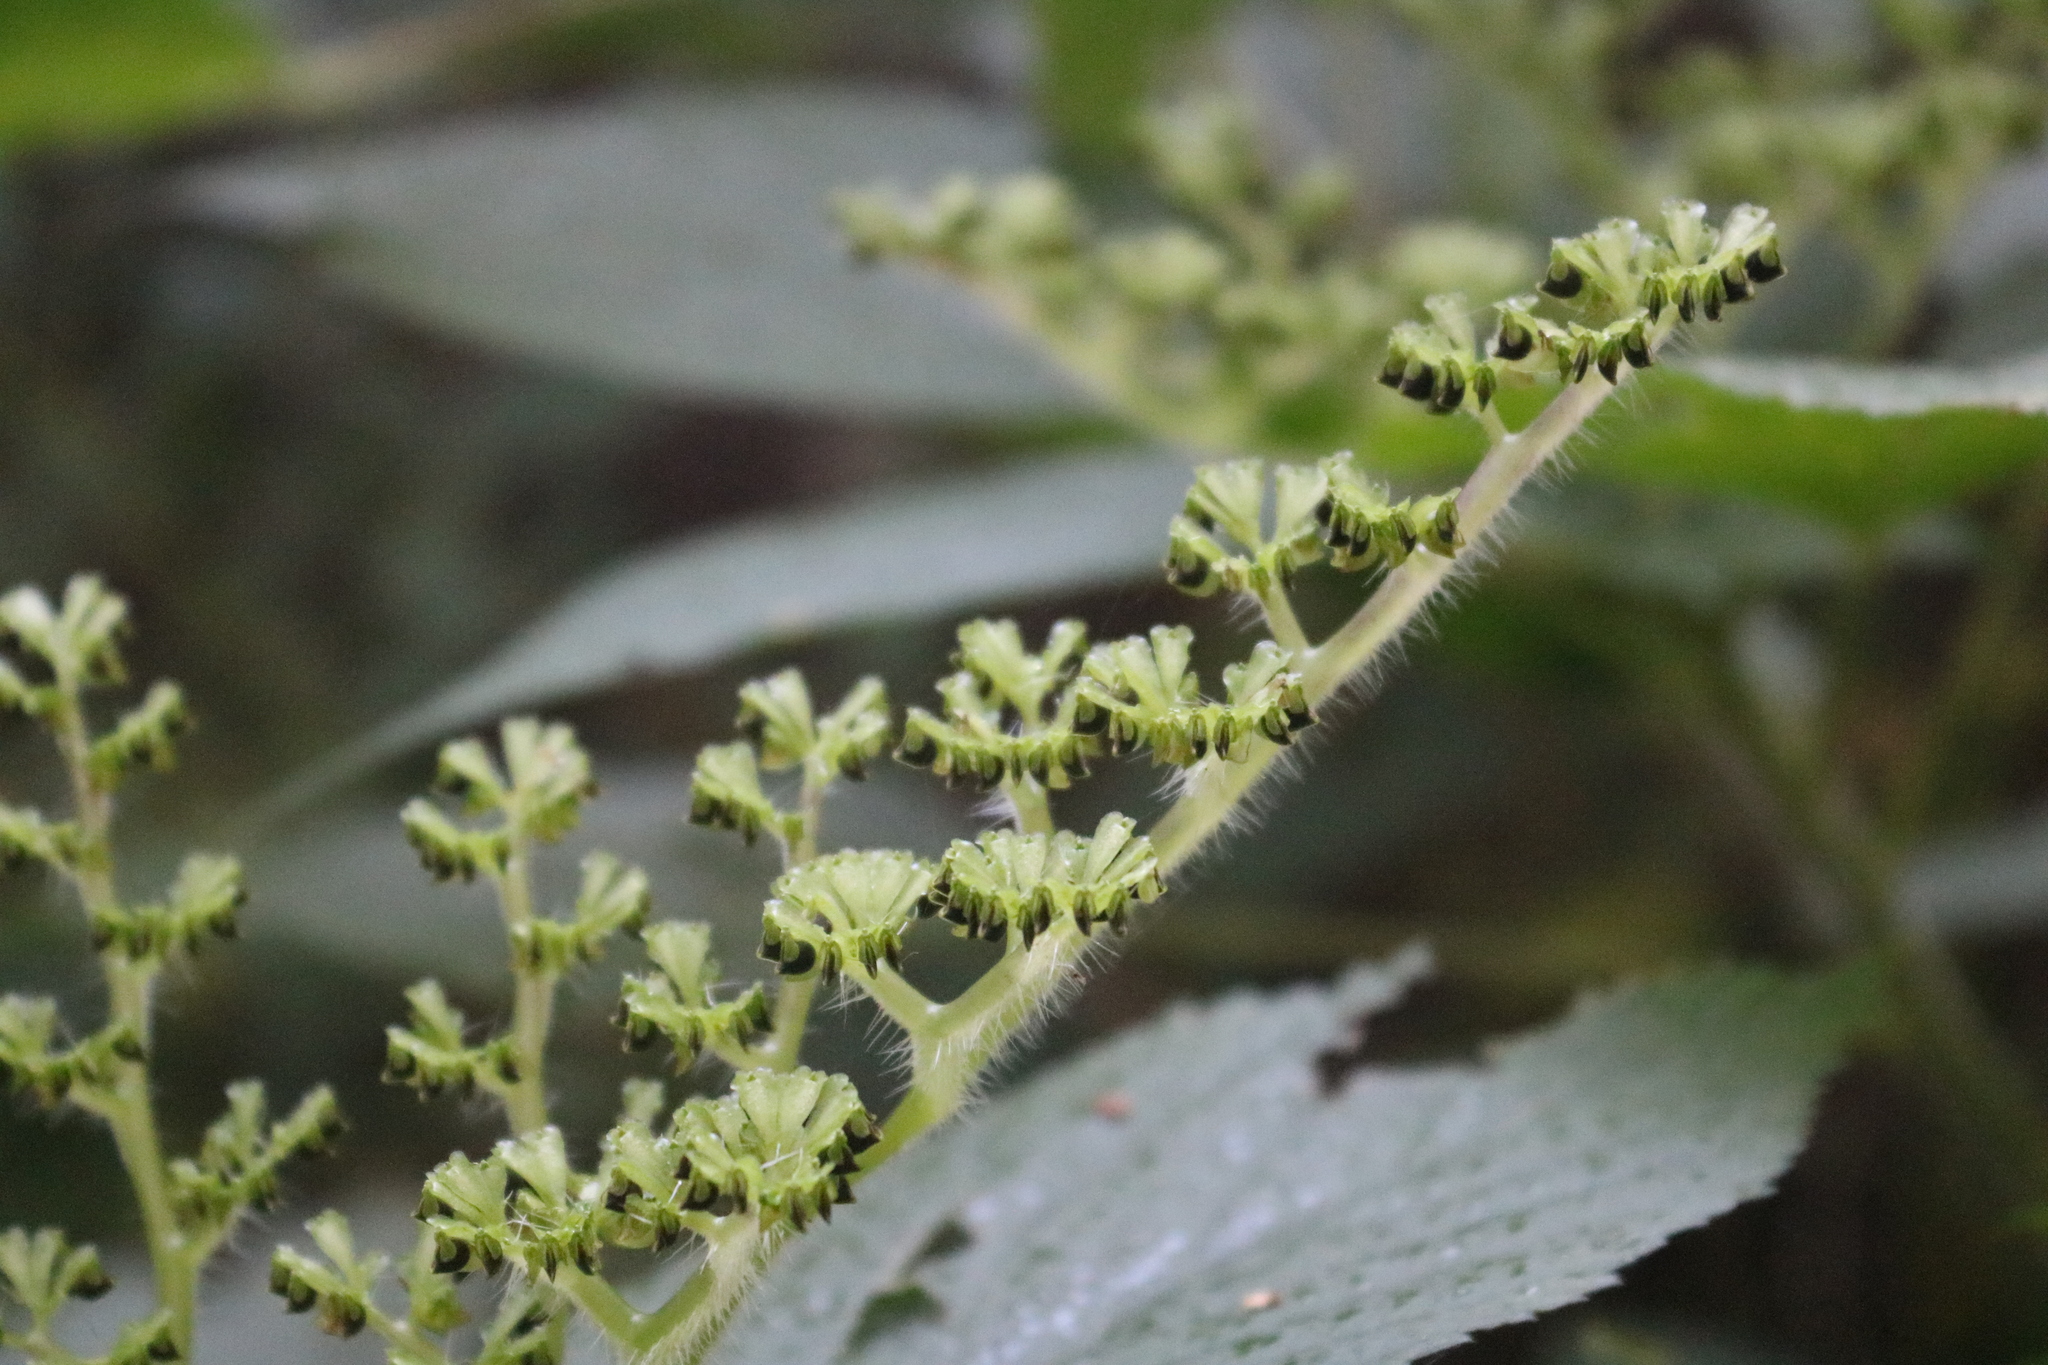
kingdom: Plantae
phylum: Tracheophyta
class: Magnoliopsida
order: Rosales
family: Urticaceae
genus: Laportea
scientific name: Laportea canadensis
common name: Canada nettle
